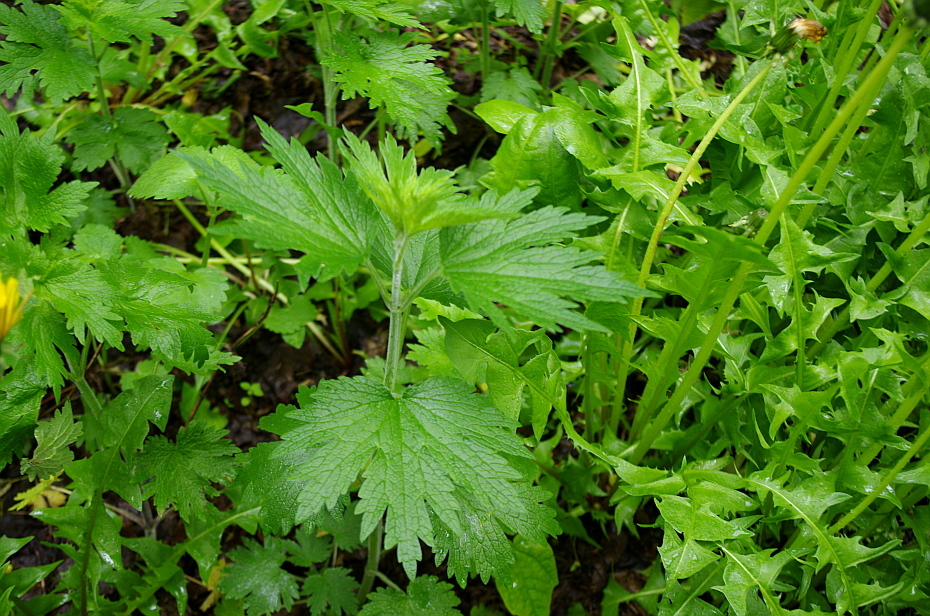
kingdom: Plantae
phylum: Tracheophyta
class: Magnoliopsida
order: Lamiales
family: Lamiaceae
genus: Leonurus
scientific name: Leonurus quinquelobatus
